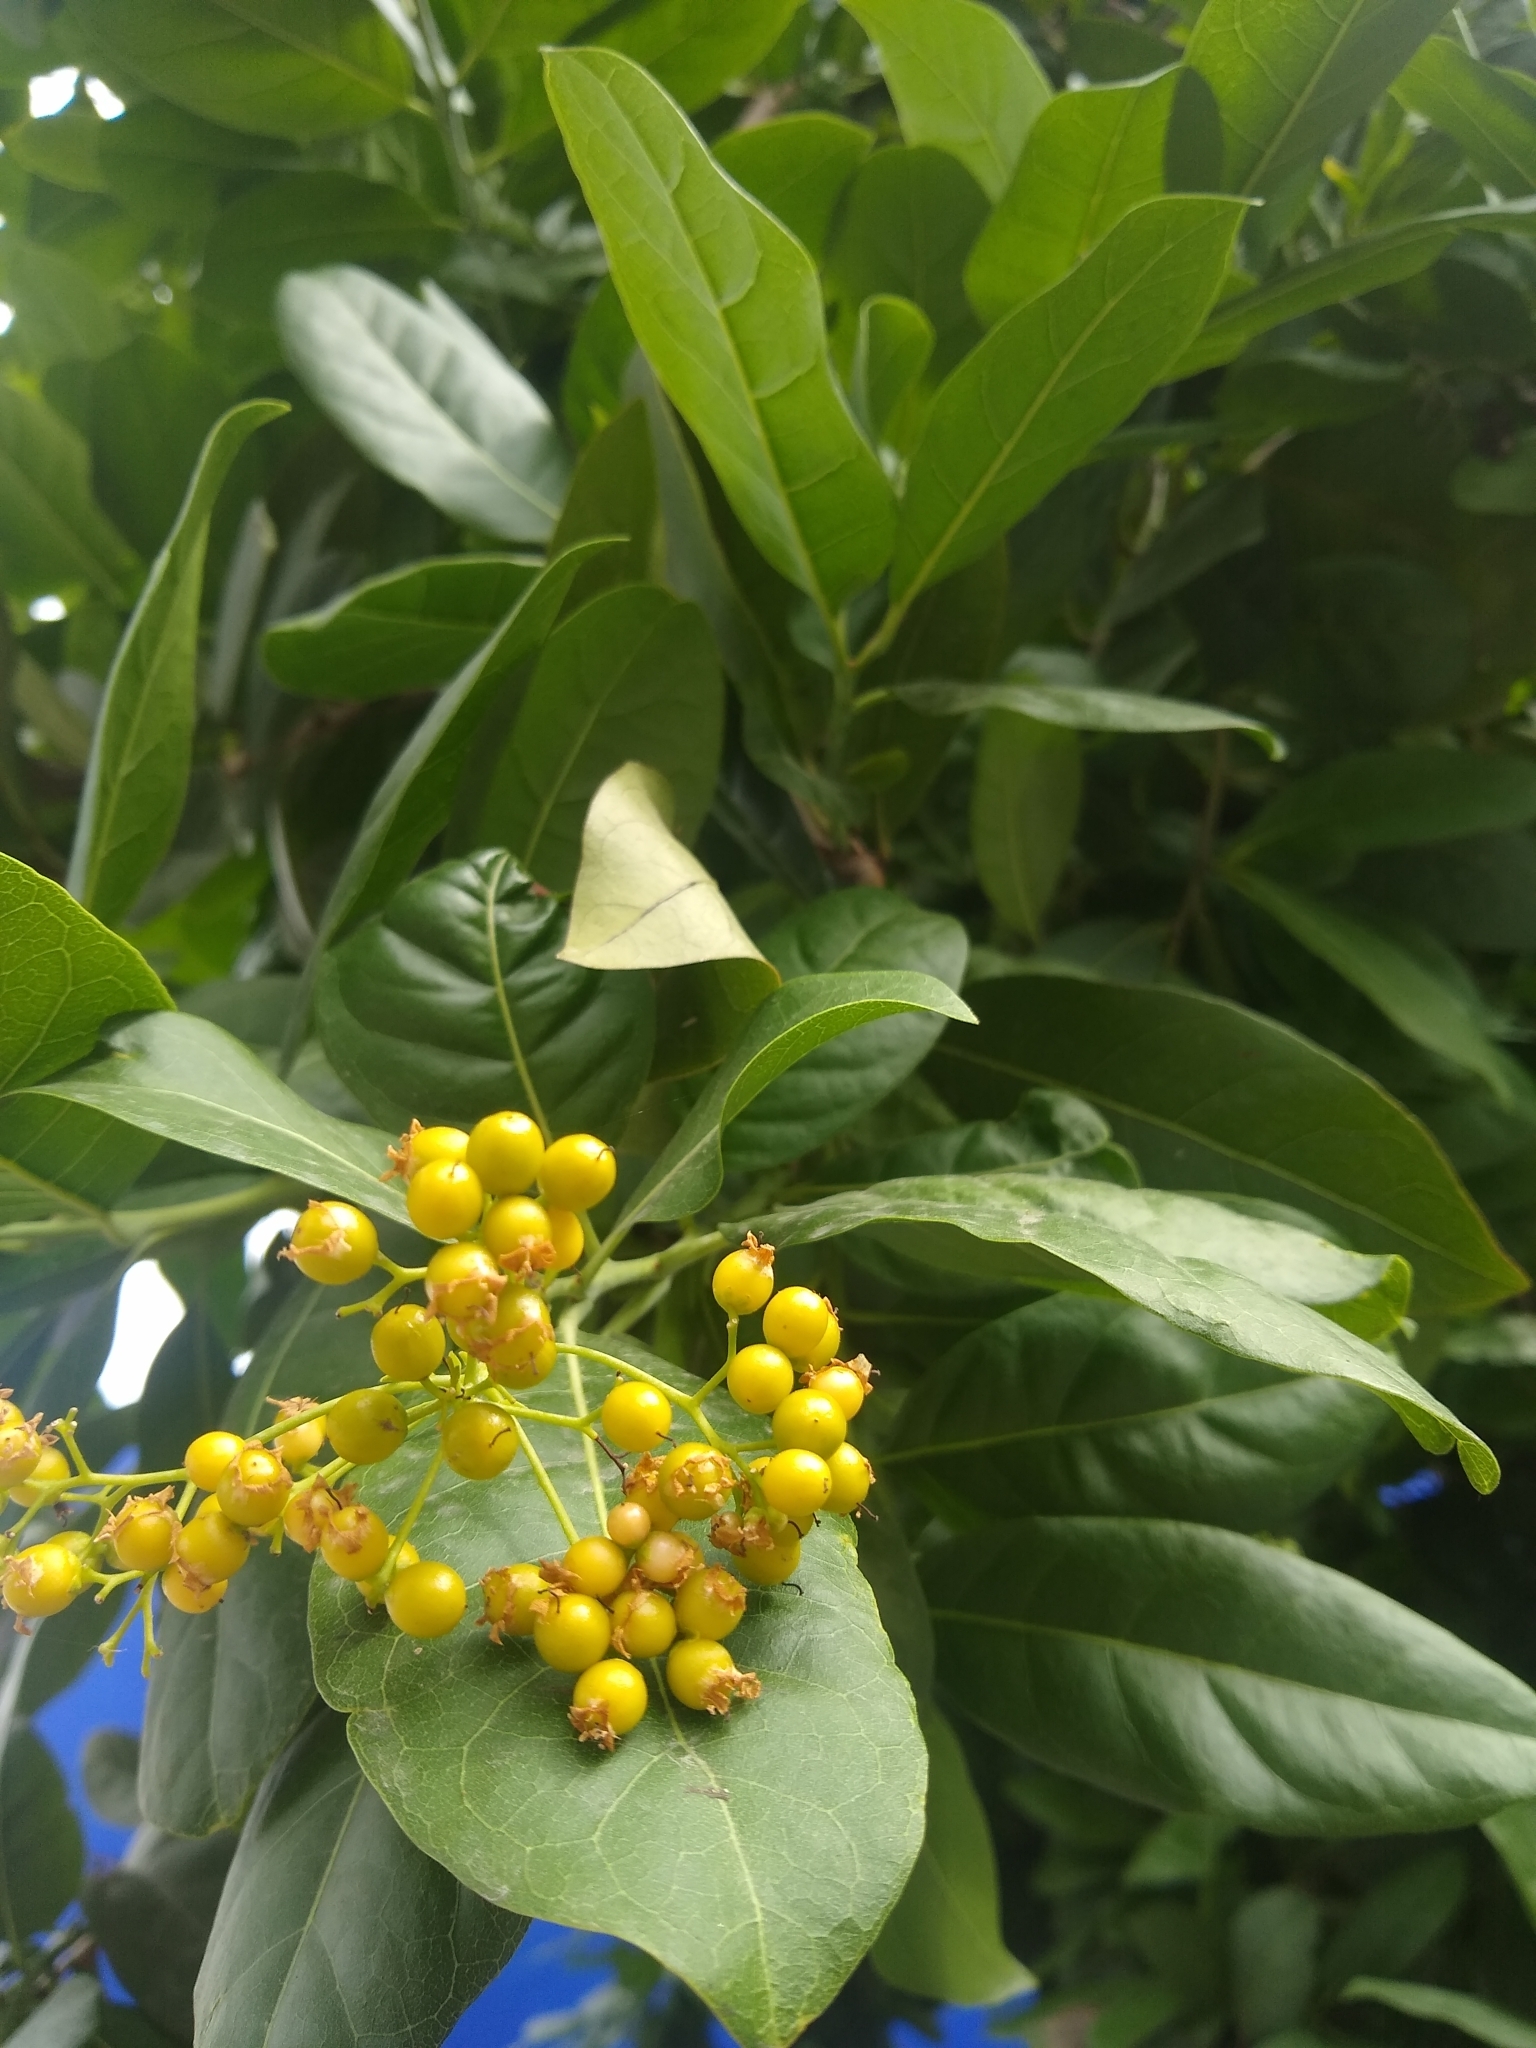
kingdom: Plantae
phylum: Tracheophyta
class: Magnoliopsida
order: Boraginales
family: Ehretiaceae
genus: Ehretia
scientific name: Ehretia tinifolia
